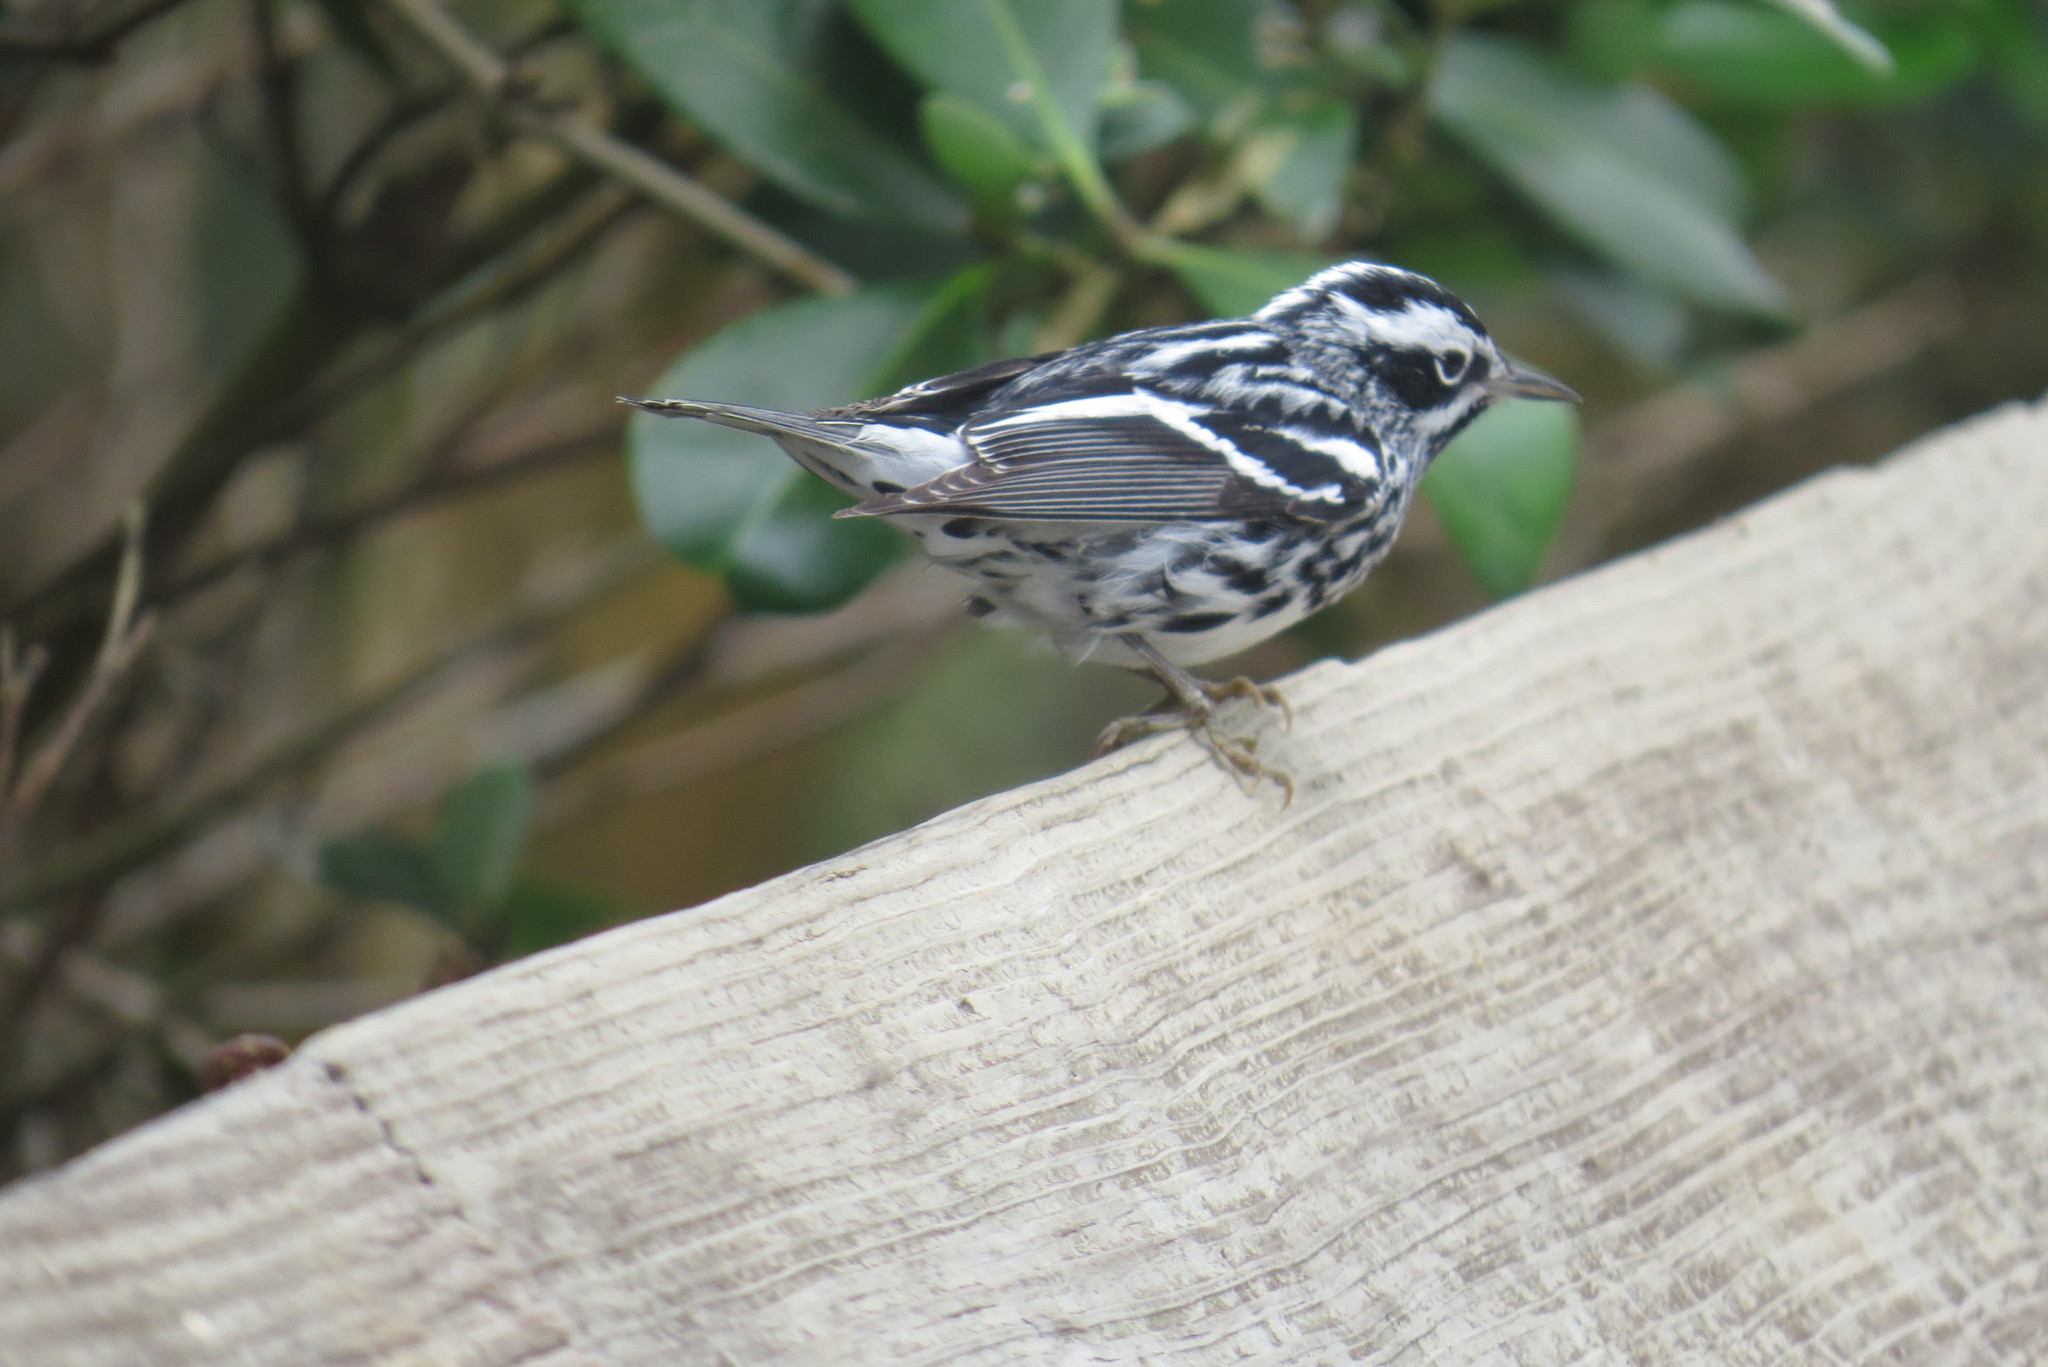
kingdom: Animalia
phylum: Chordata
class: Aves
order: Passeriformes
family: Parulidae
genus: Mniotilta
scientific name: Mniotilta varia
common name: Black-and-white warbler
